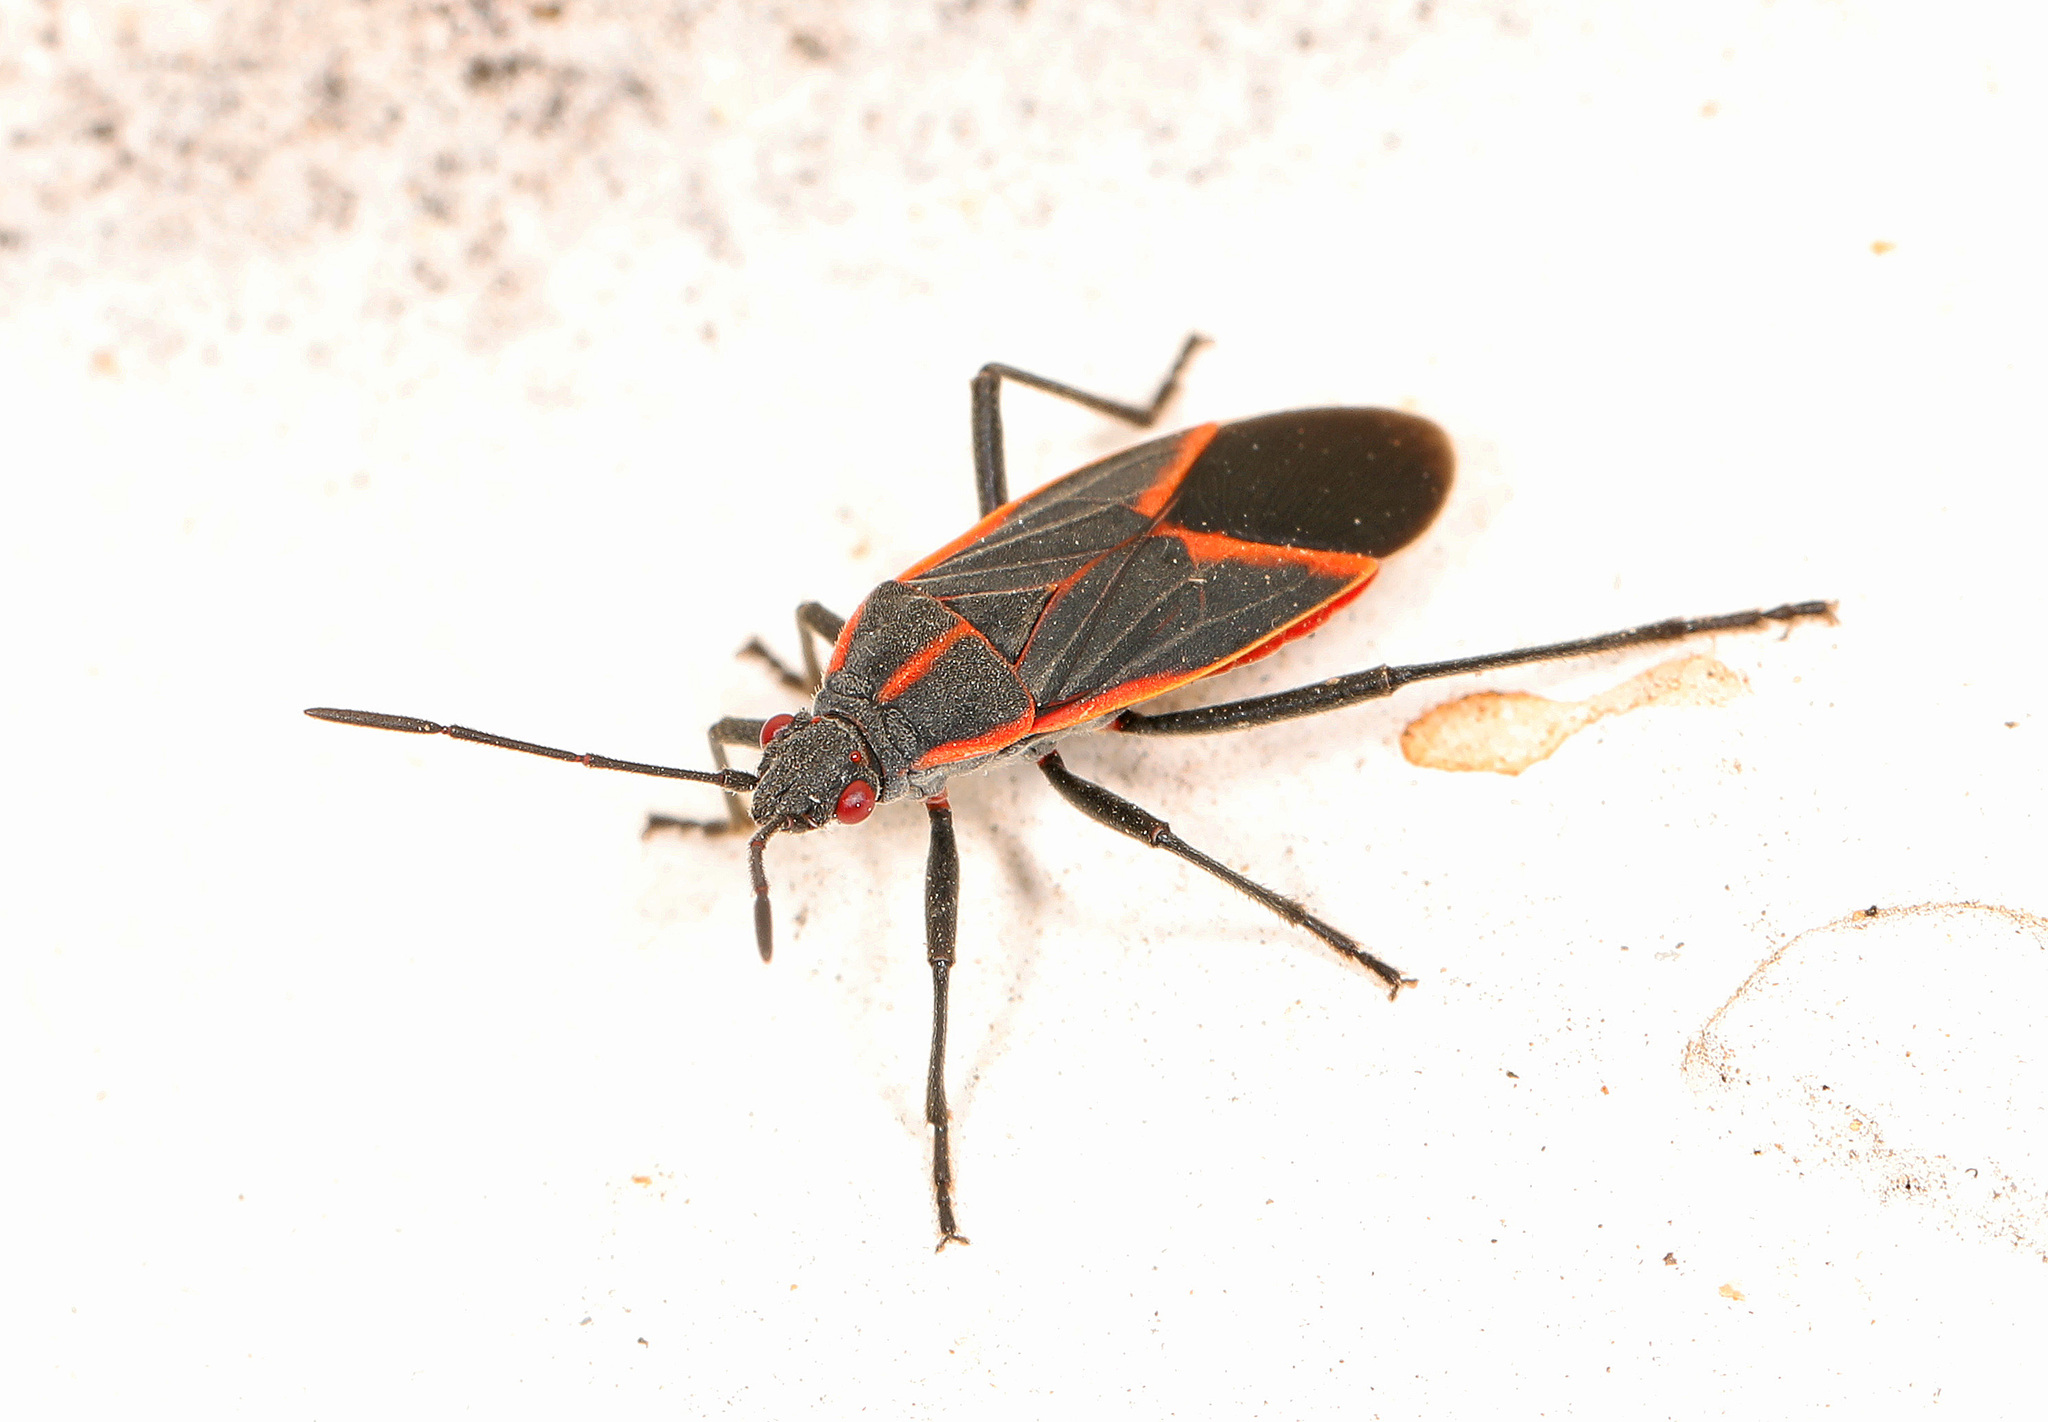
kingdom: Animalia
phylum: Arthropoda
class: Insecta
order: Hemiptera
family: Rhopalidae
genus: Boisea
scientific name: Boisea trivittata
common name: Boxelder bug
